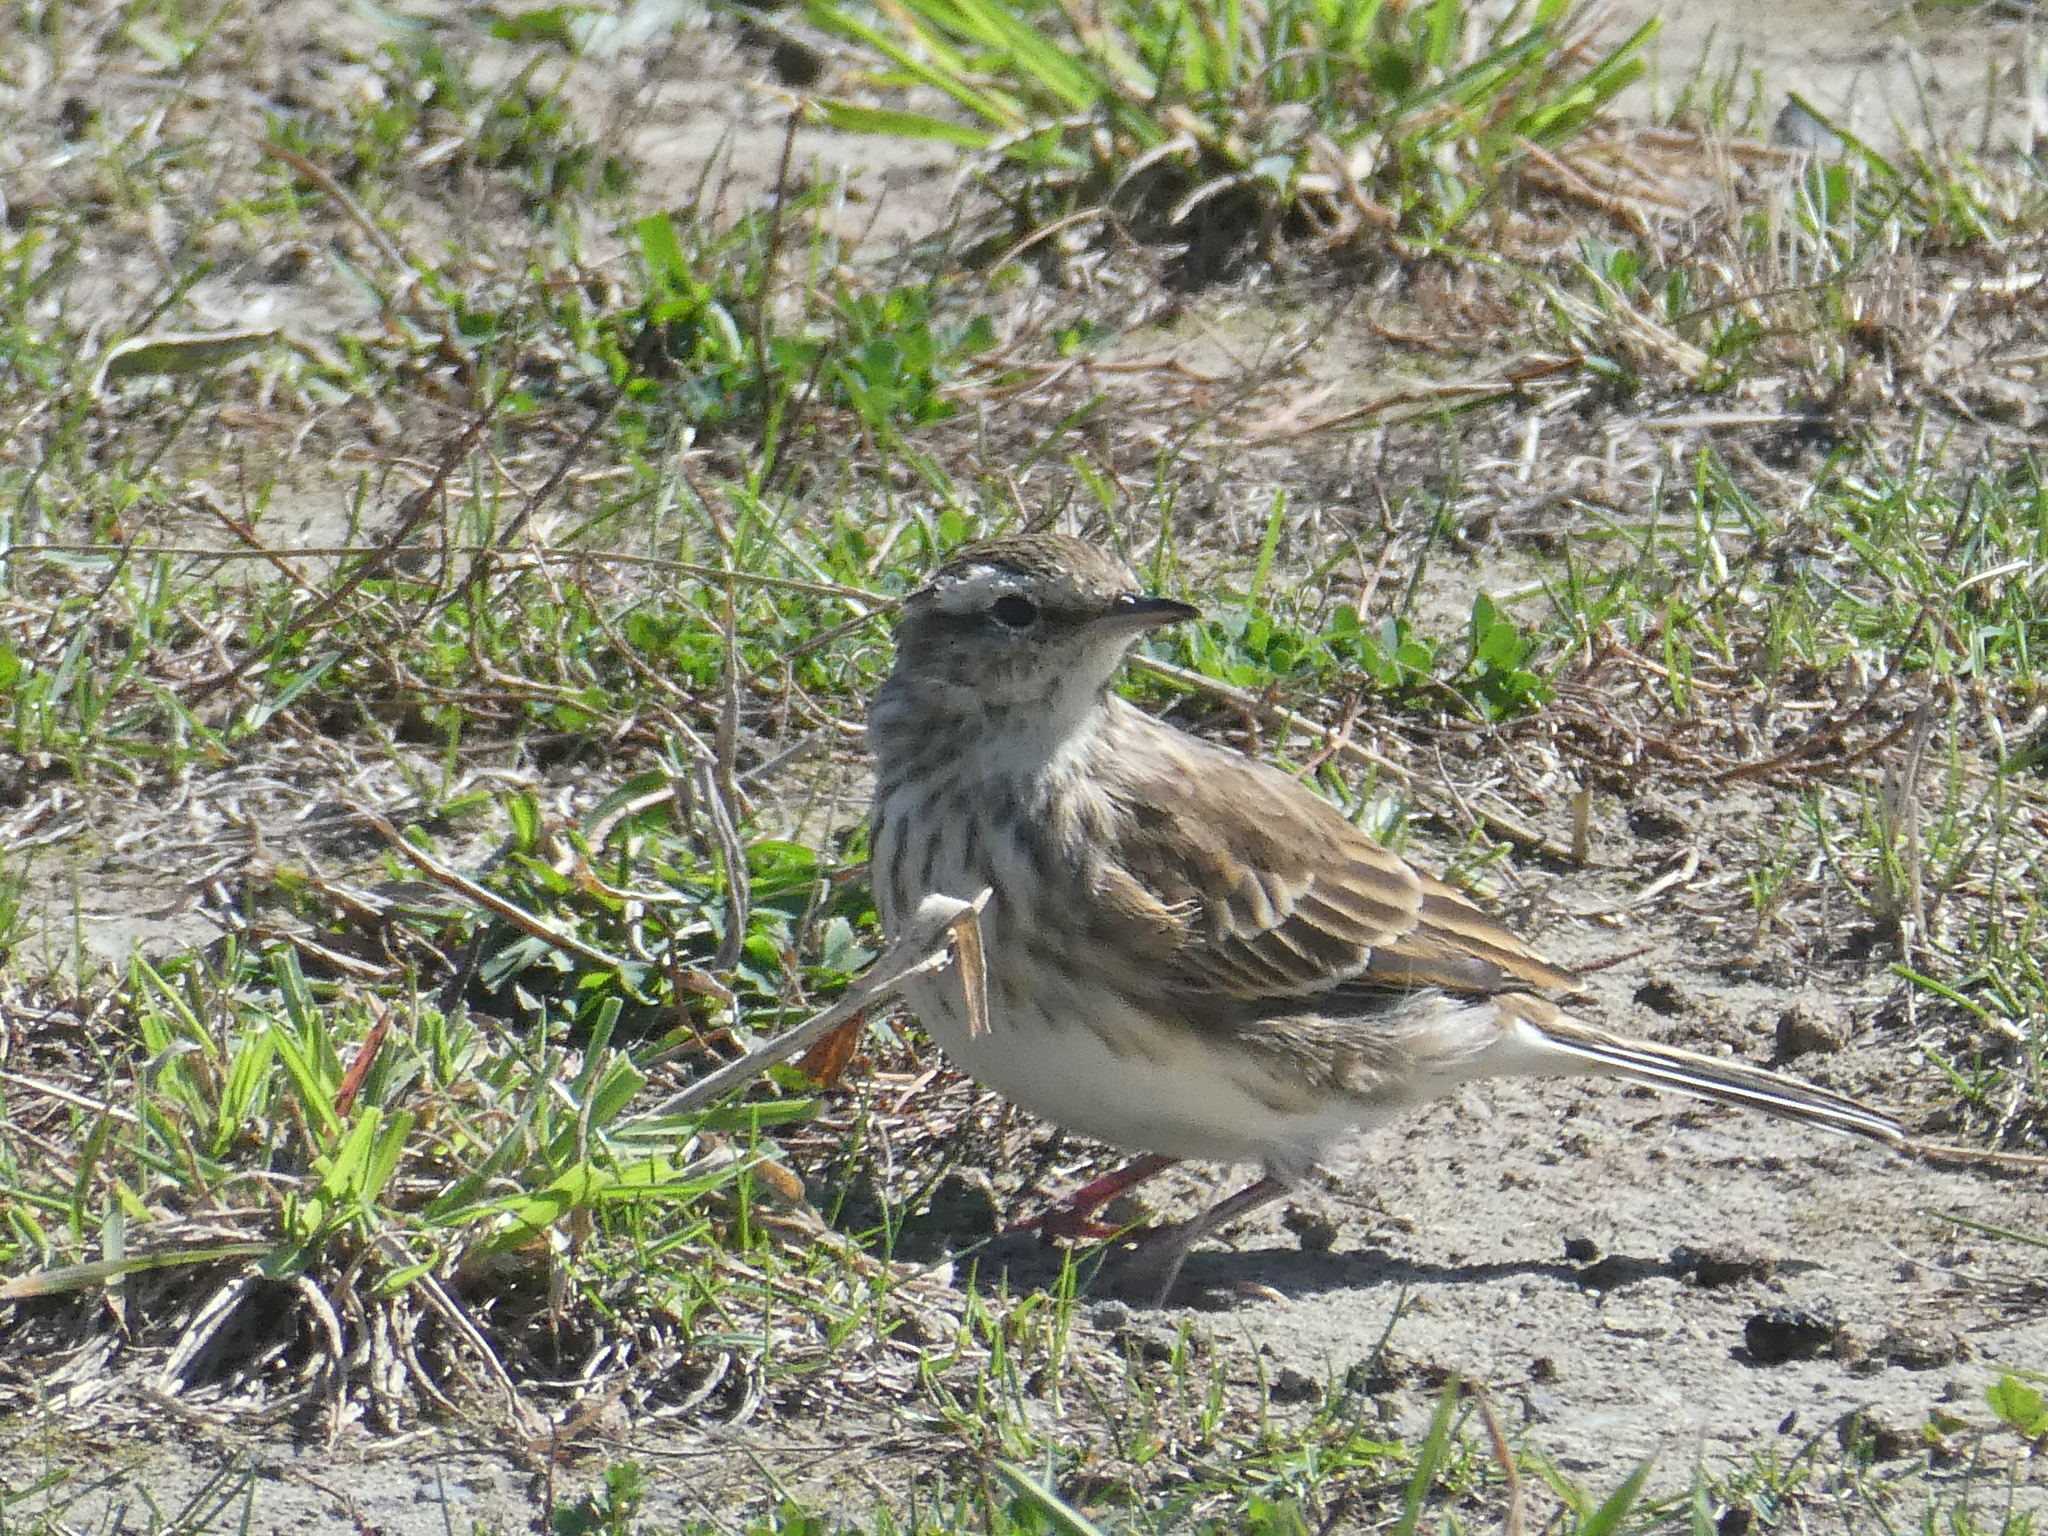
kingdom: Animalia
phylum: Chordata
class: Aves
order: Passeriformes
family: Motacillidae
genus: Anthus
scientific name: Anthus novaeseelandiae
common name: New zealand pipit
